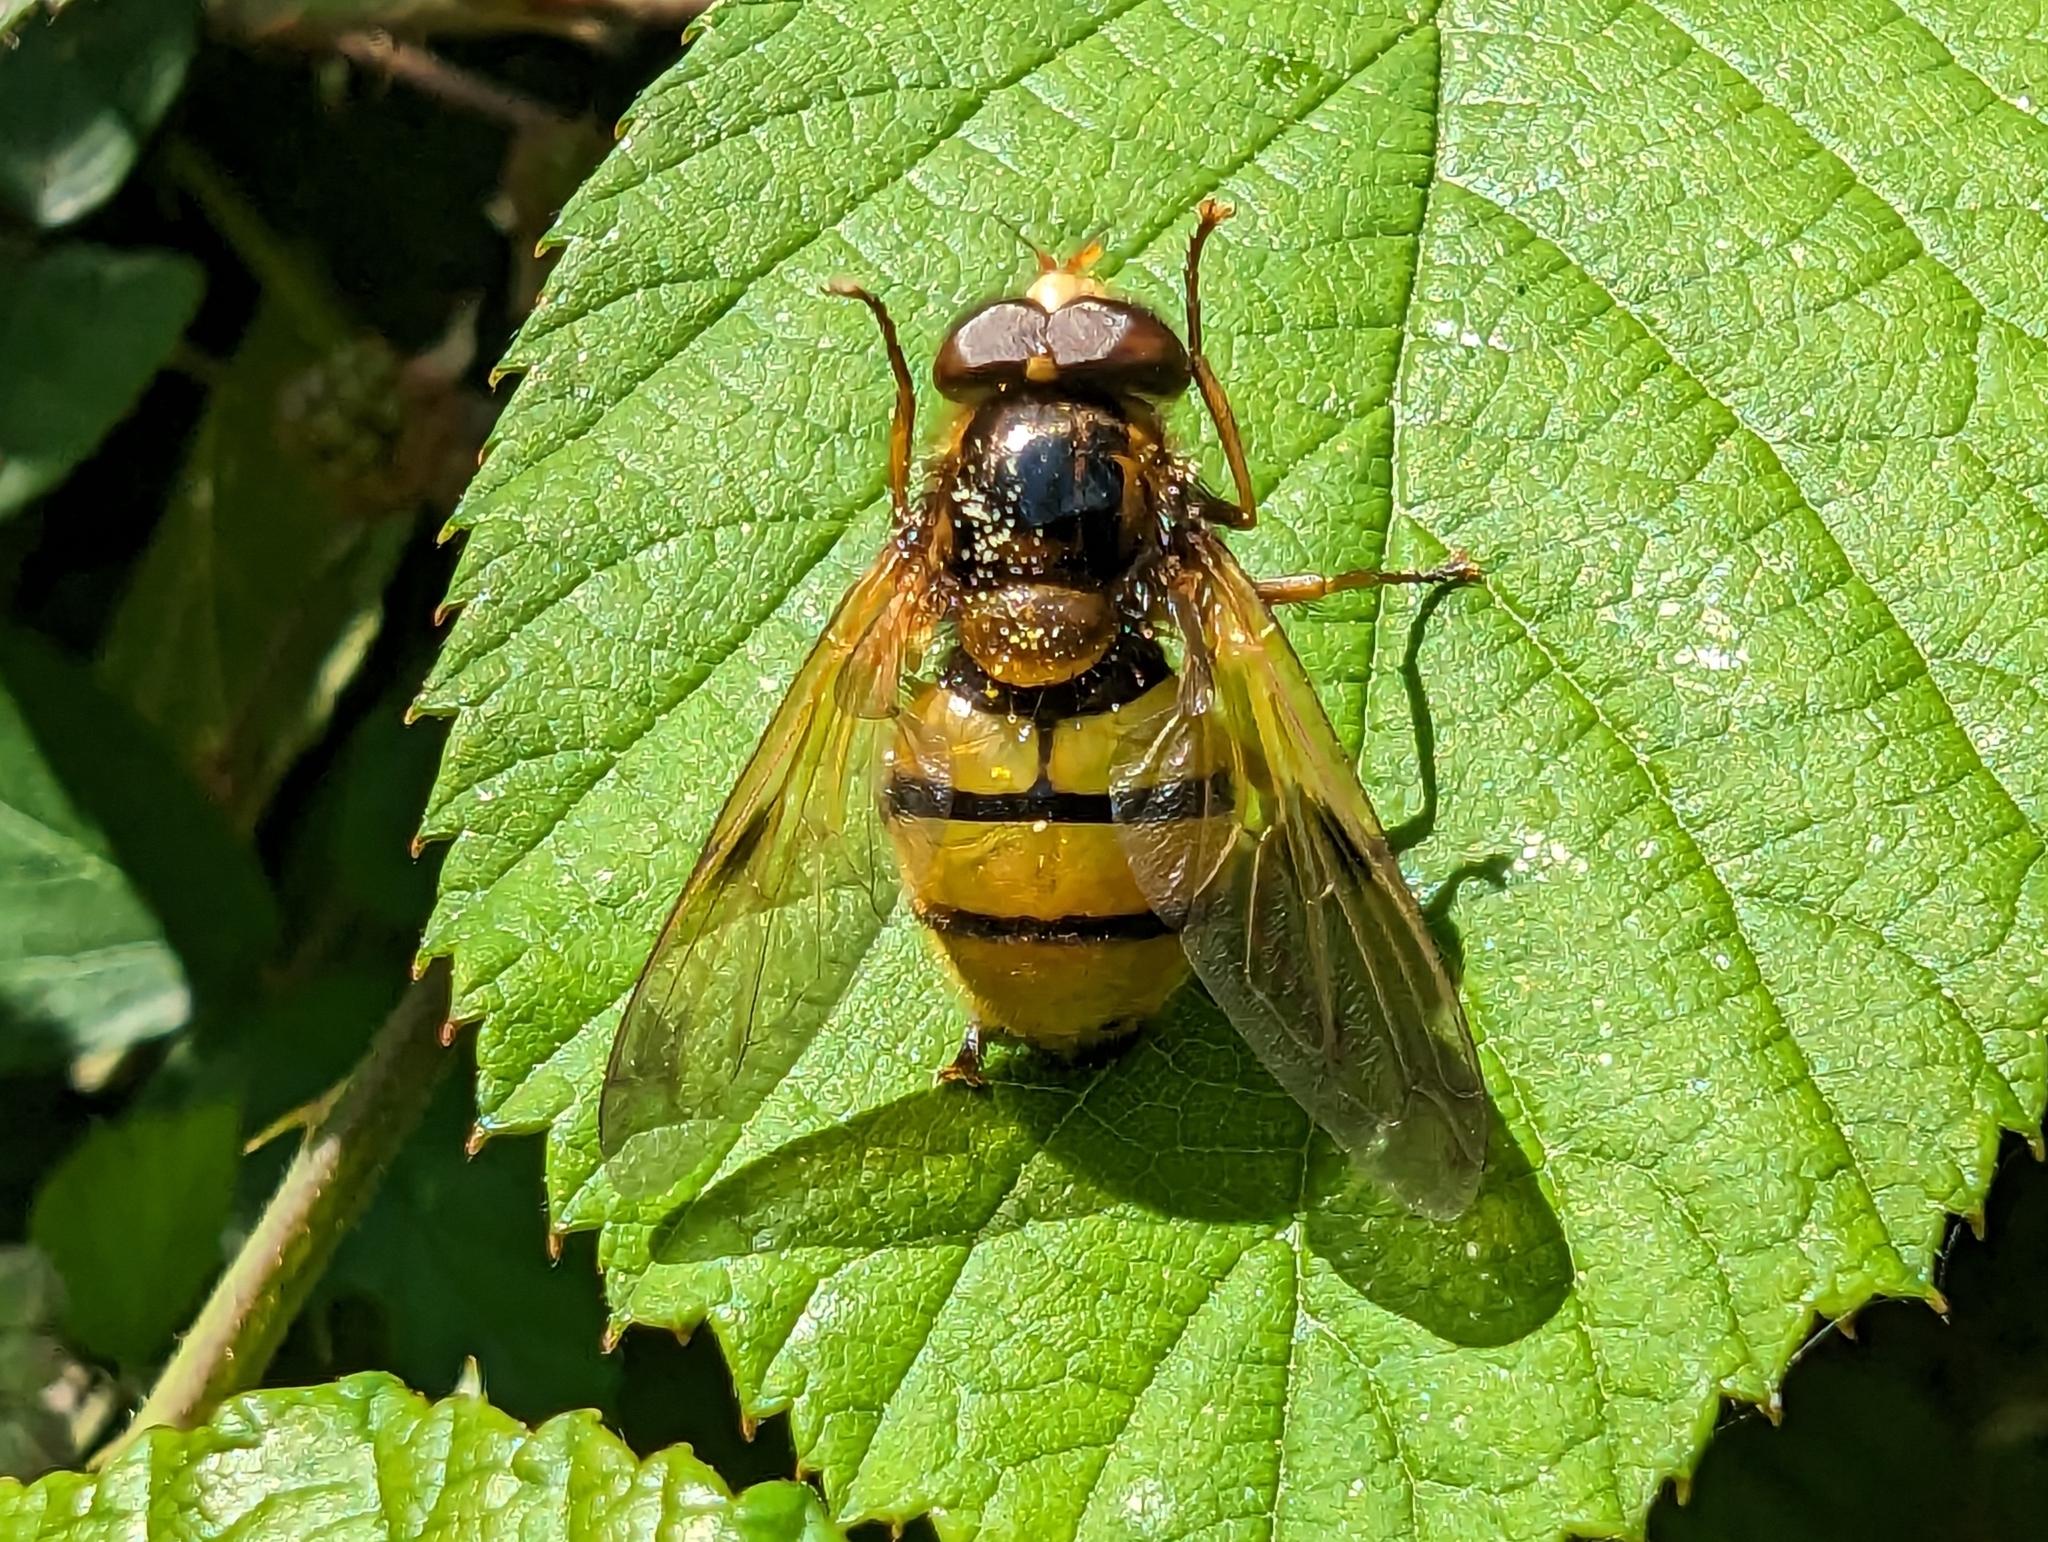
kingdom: Animalia
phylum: Arthropoda
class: Insecta
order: Diptera
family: Syrphidae
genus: Volucella
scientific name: Volucella inanis
